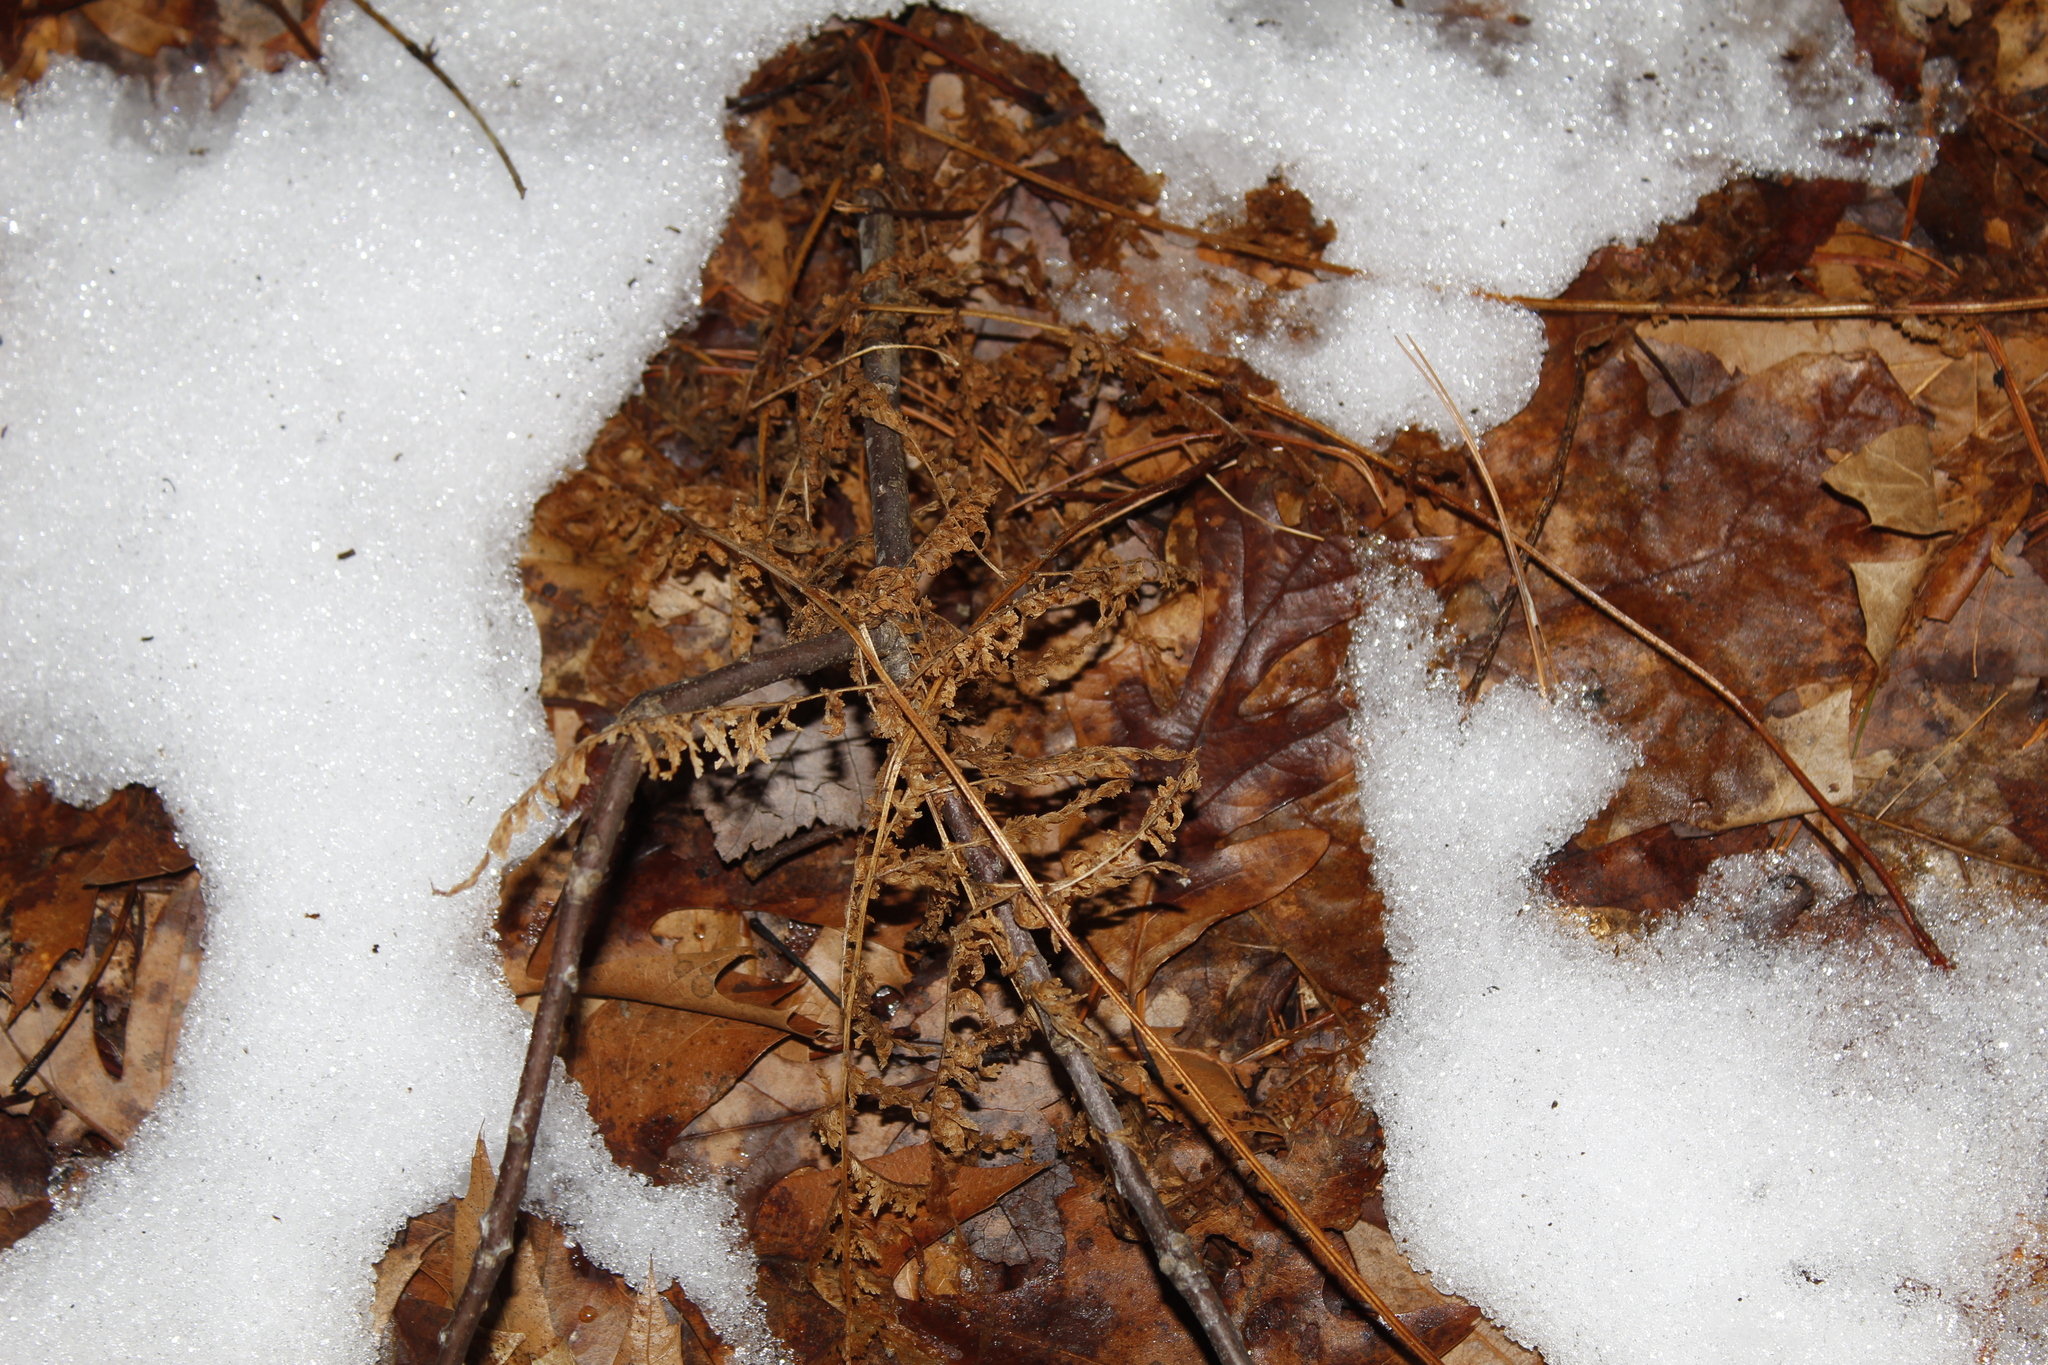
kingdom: Plantae
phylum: Tracheophyta
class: Polypodiopsida
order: Polypodiales
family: Dennstaedtiaceae
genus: Sitobolium
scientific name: Sitobolium punctilobum
